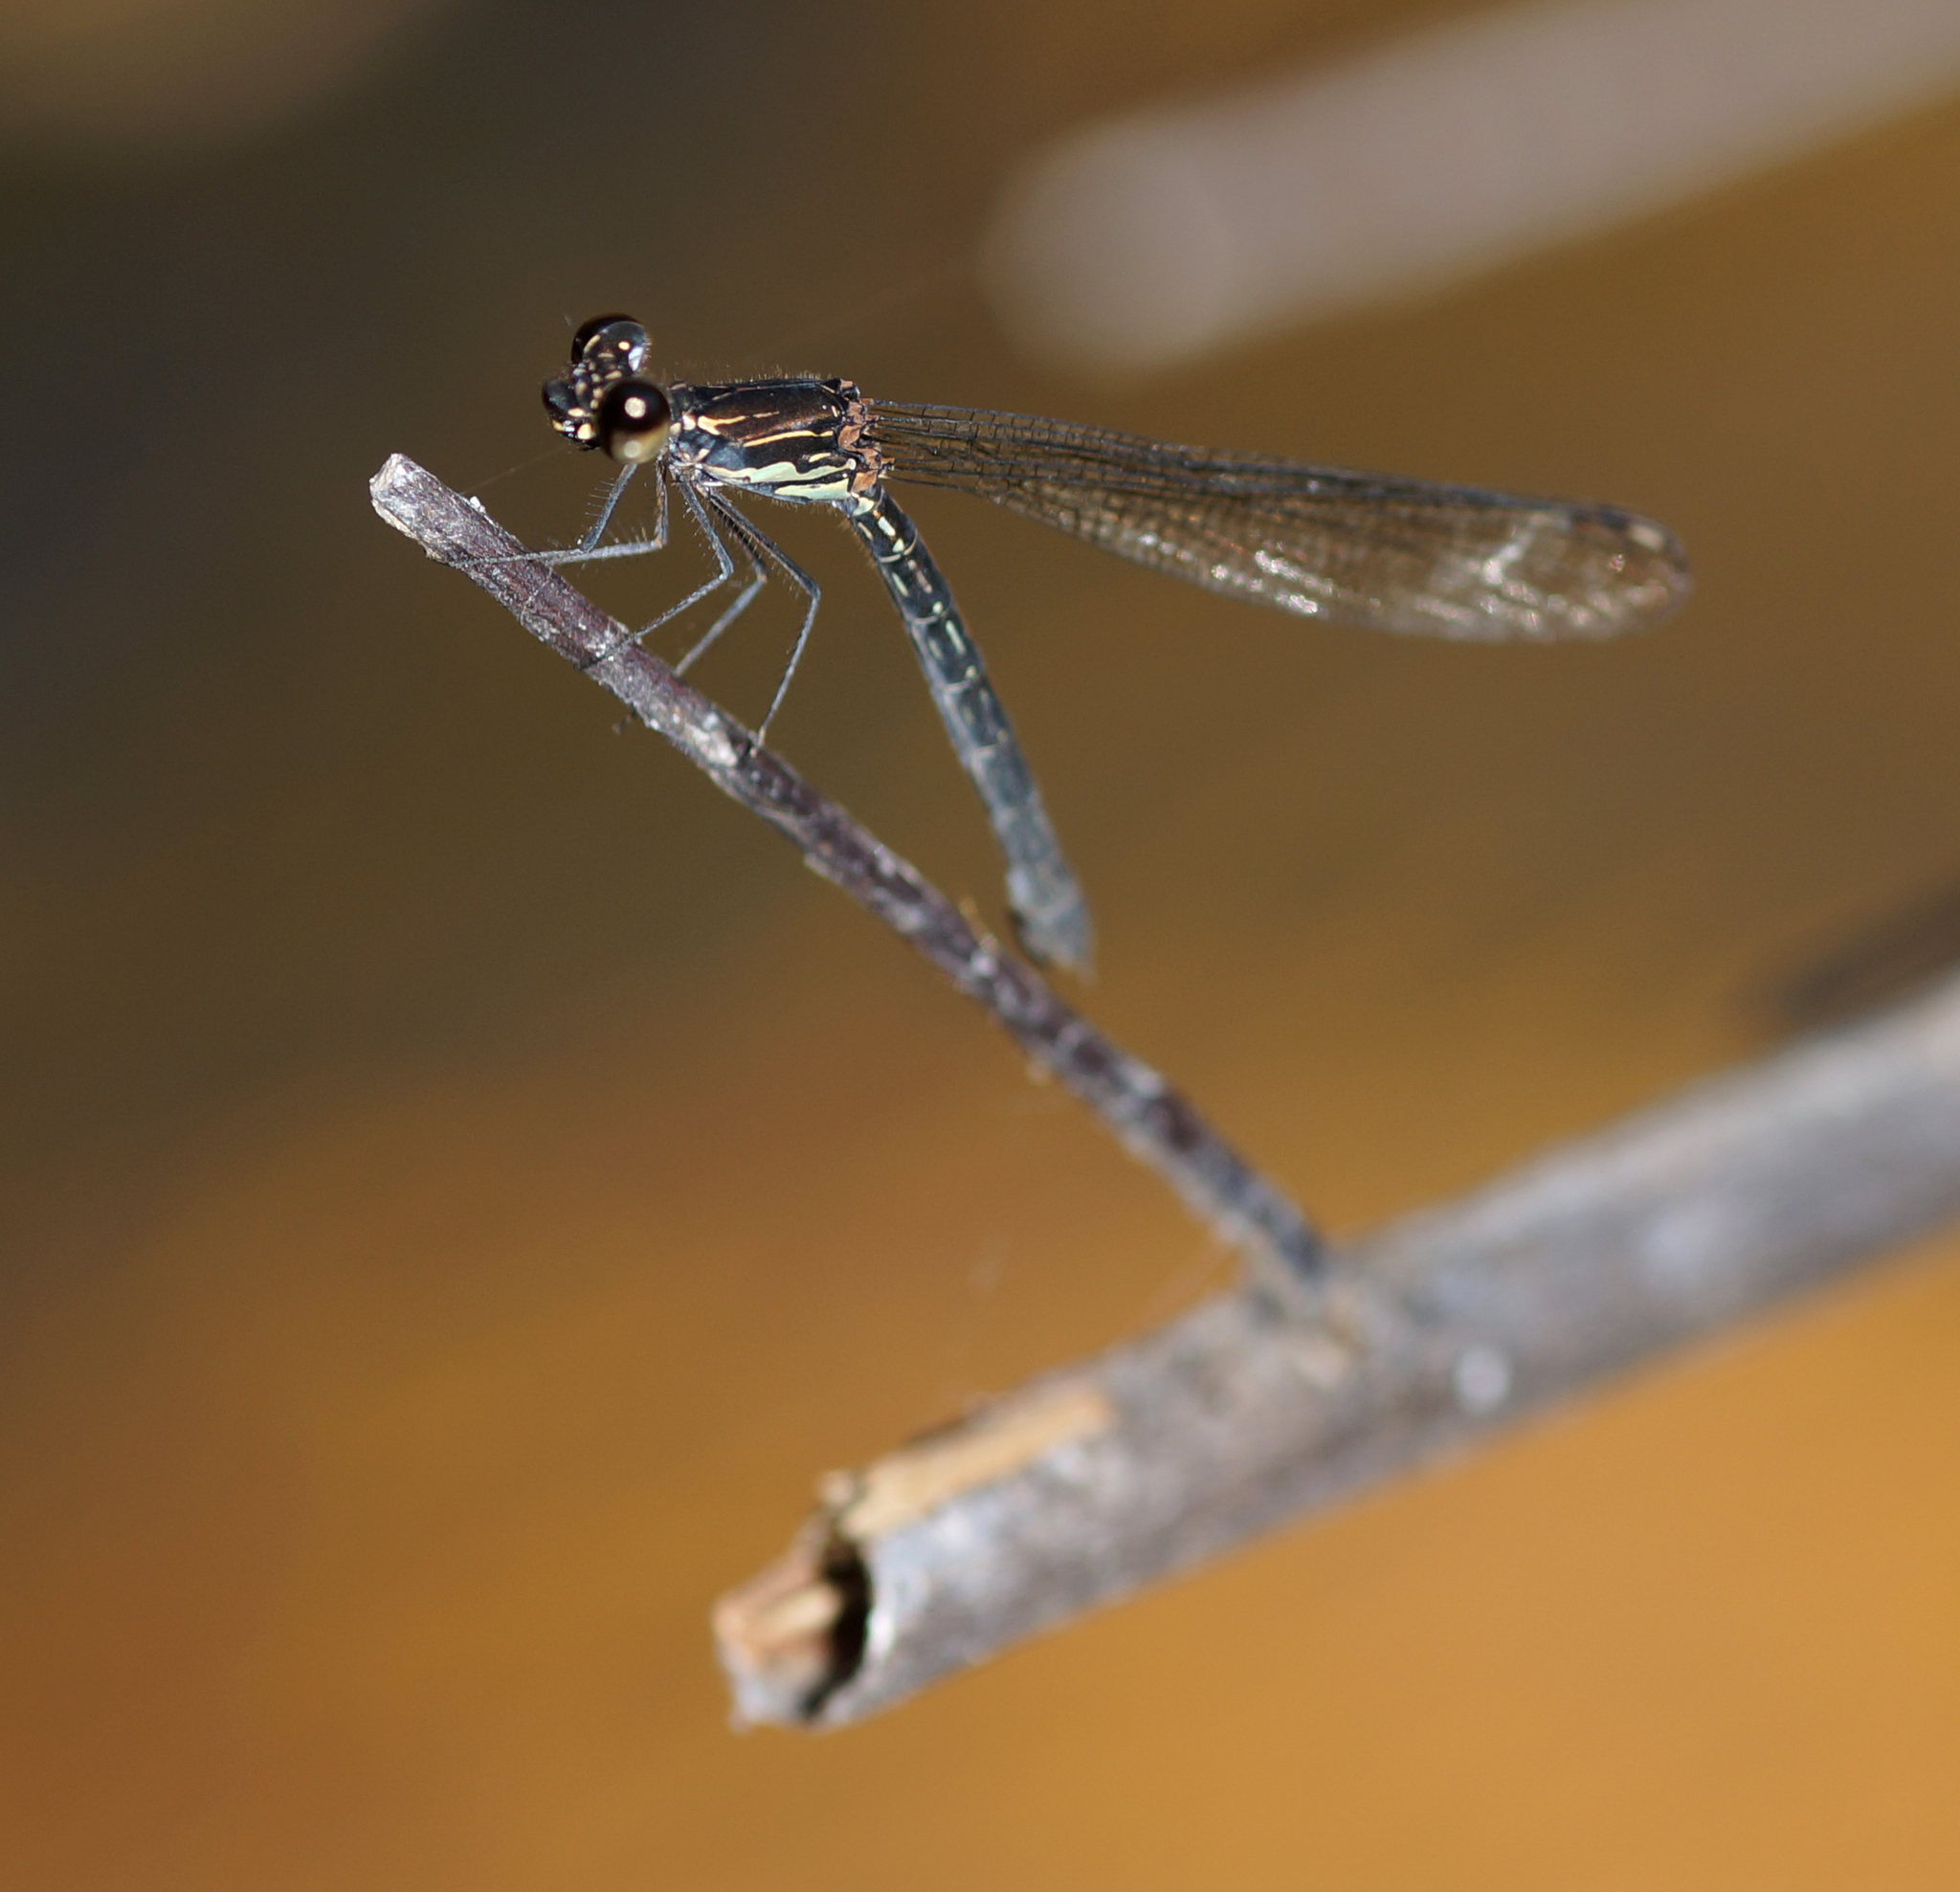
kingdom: Animalia
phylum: Arthropoda
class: Insecta
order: Odonata
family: Chlorocyphidae
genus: Libellago
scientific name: Libellago hyalina
